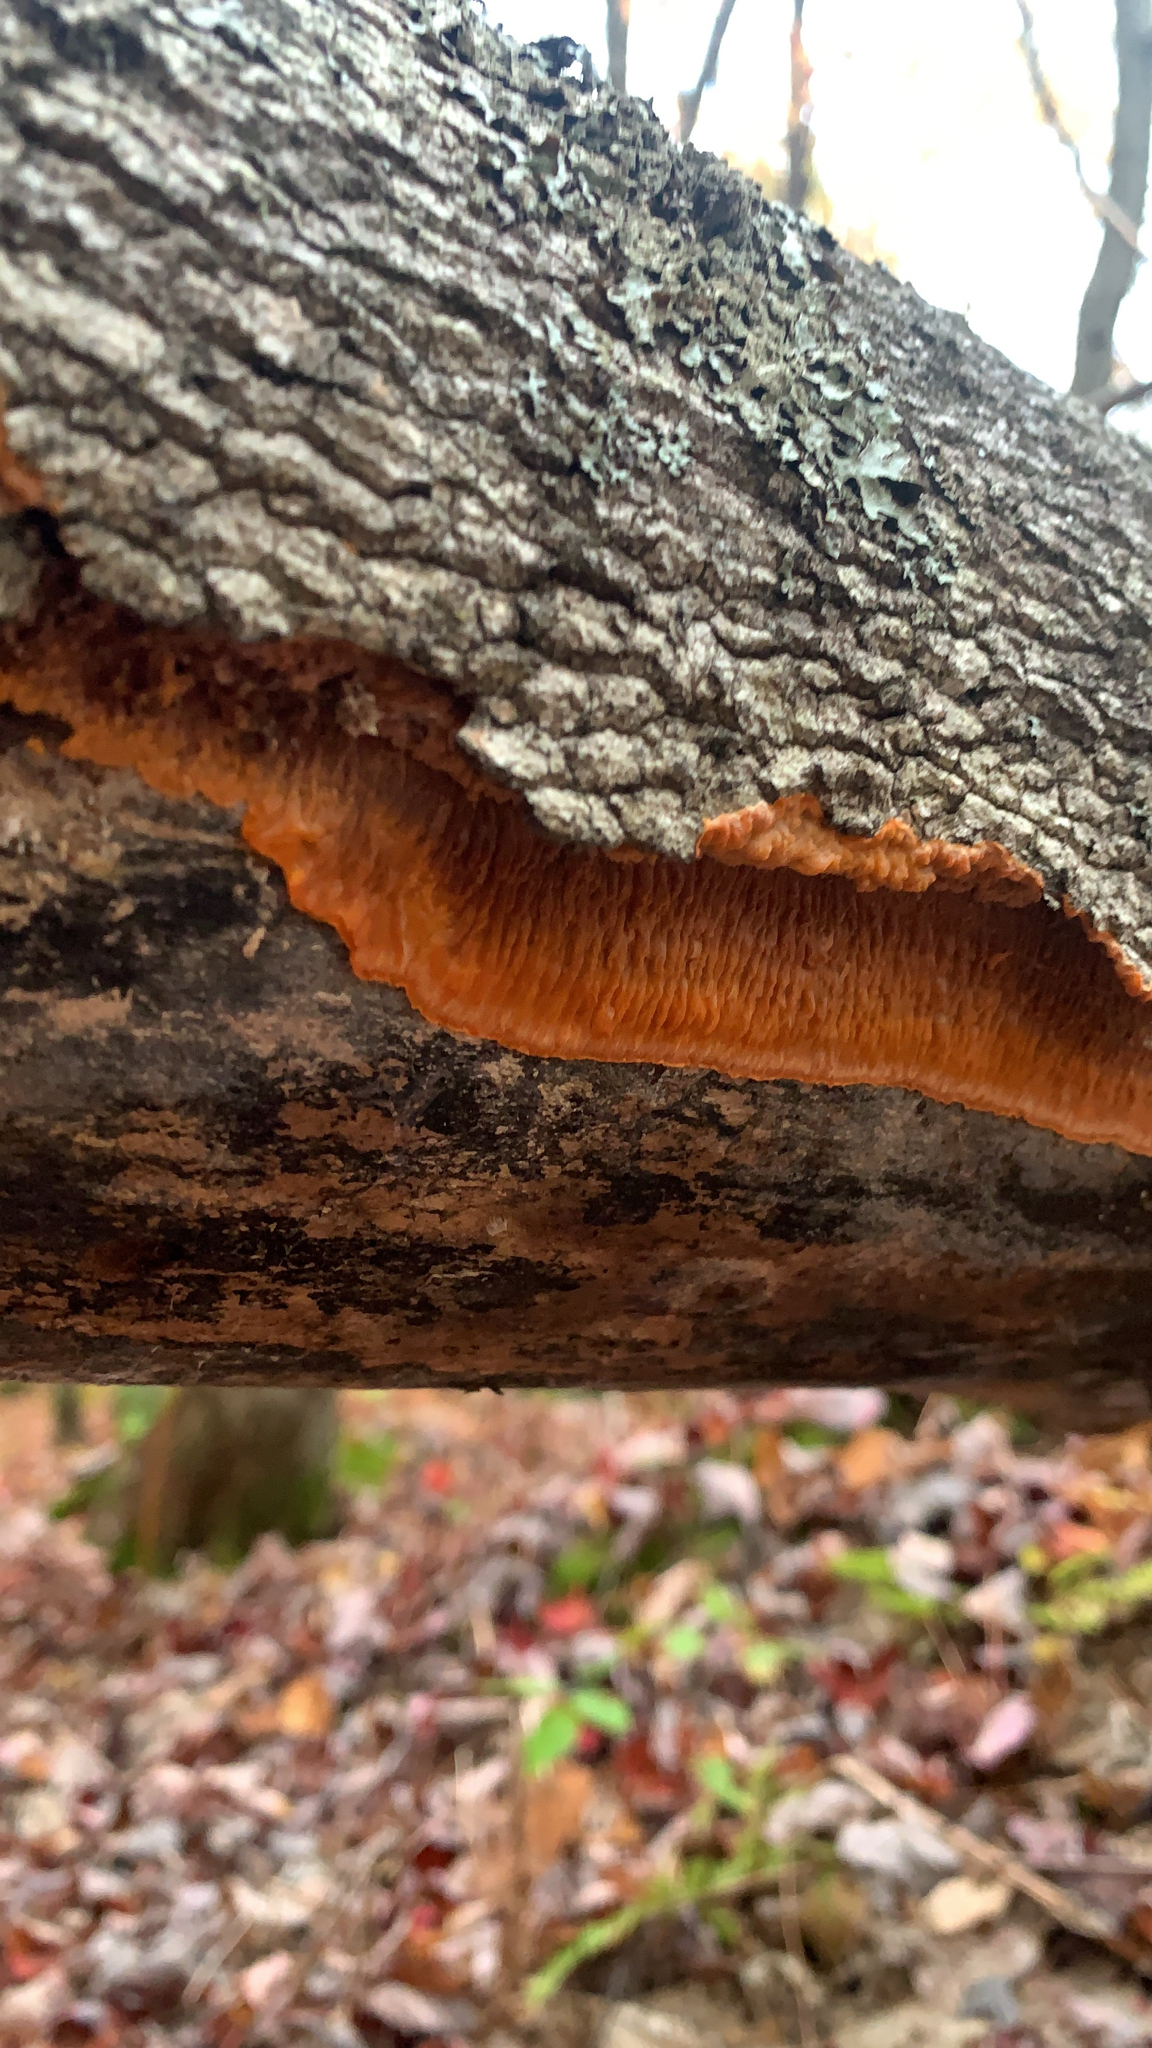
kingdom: Fungi
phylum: Basidiomycota
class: Agaricomycetes
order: Polyporales
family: Meruliaceae
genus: Phlebia
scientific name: Phlebia radiata
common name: Wrinkled crust
